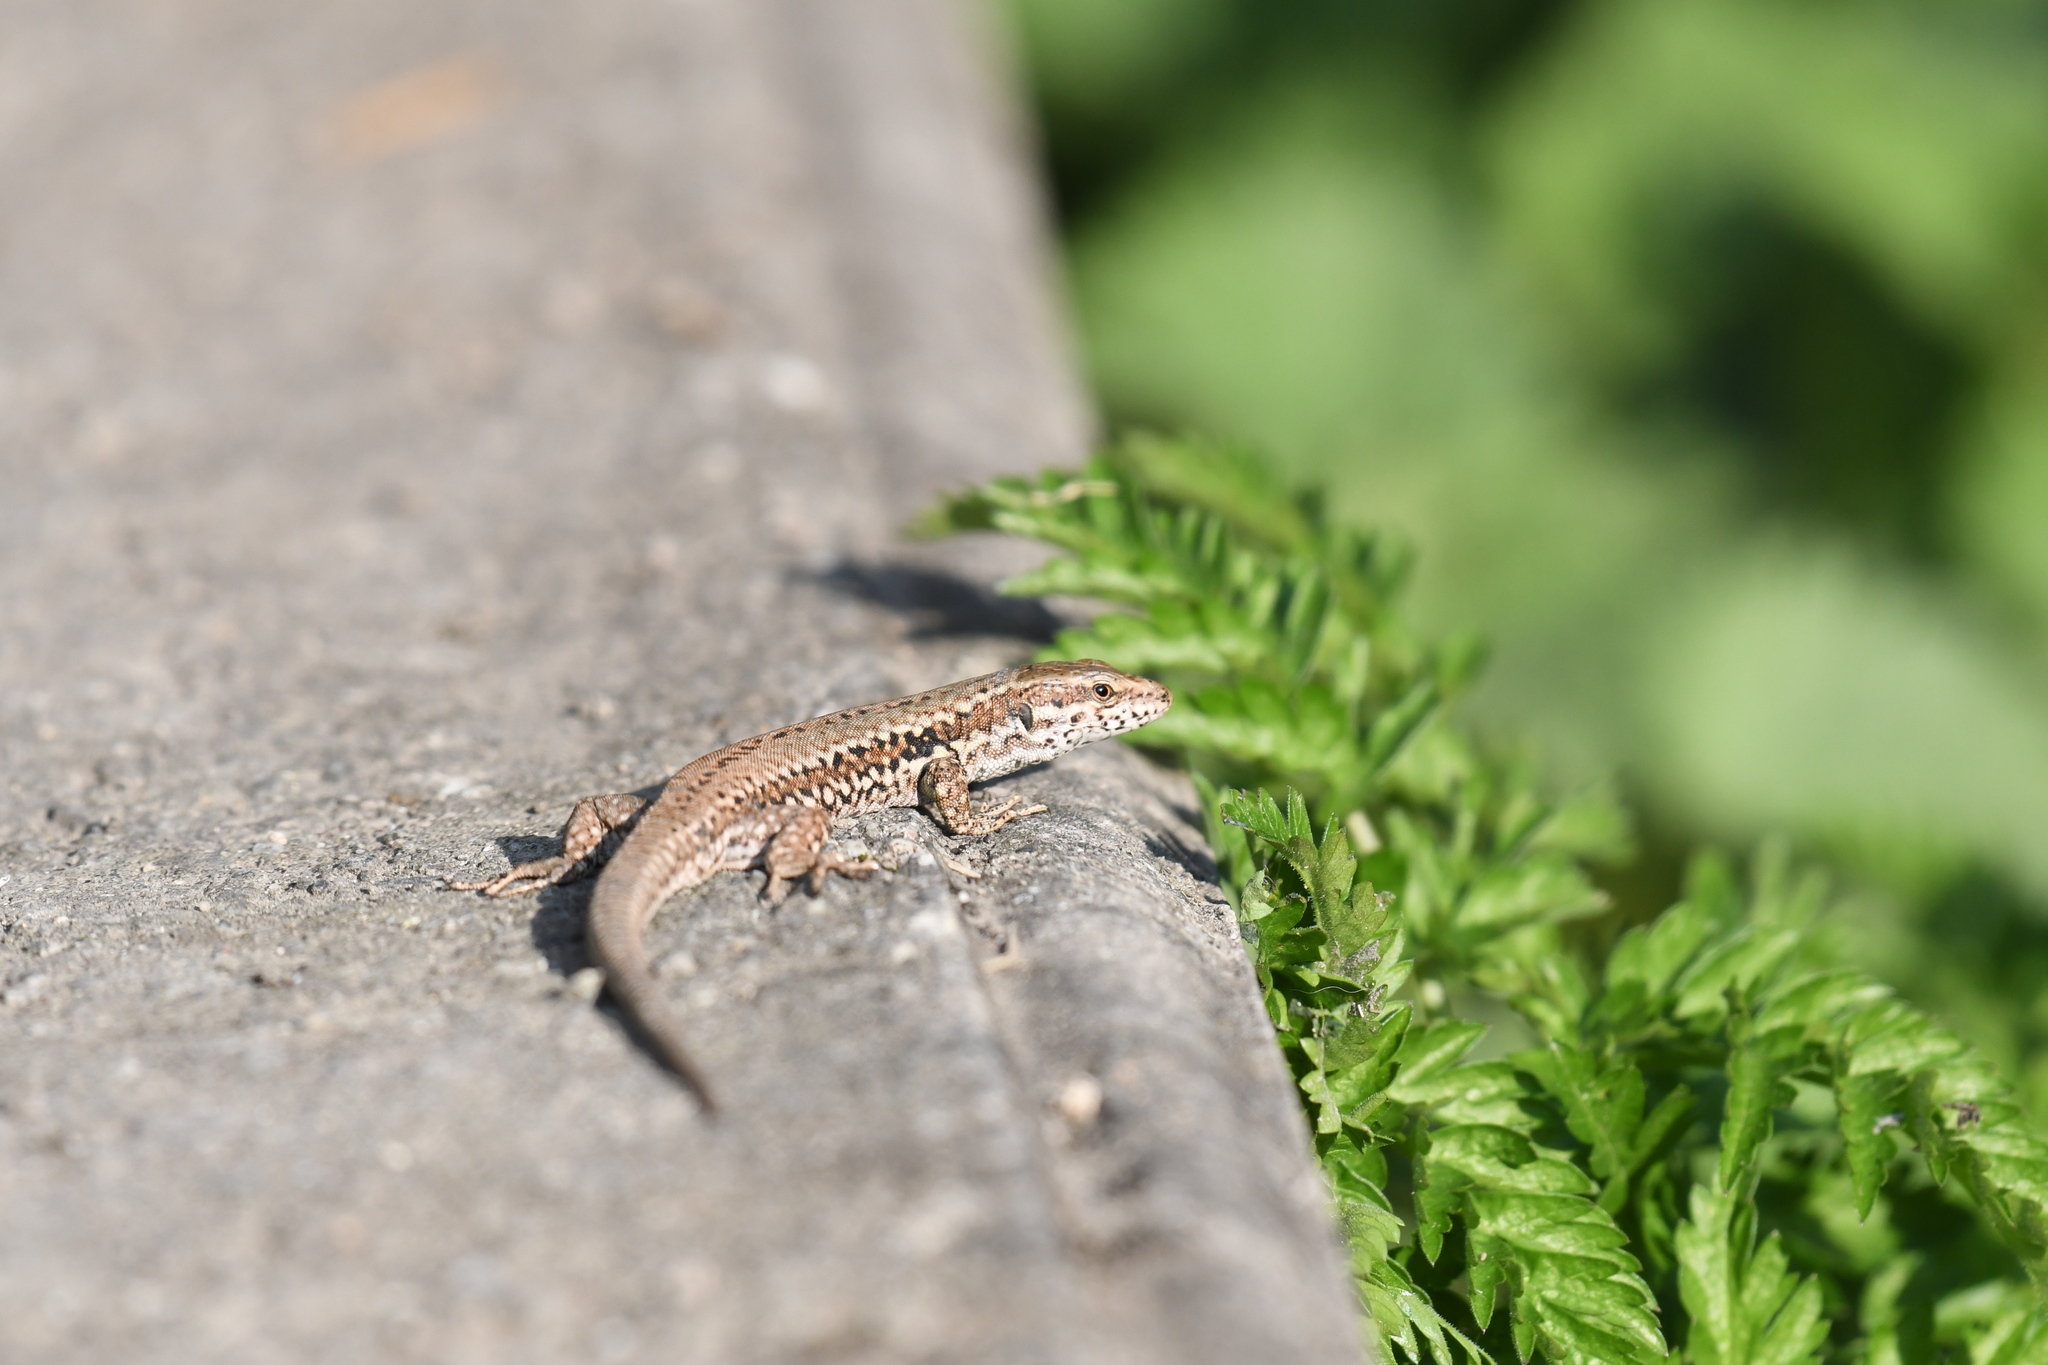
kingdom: Animalia
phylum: Chordata
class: Squamata
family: Lacertidae
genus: Podarcis
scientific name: Podarcis muralis
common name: Common wall lizard
